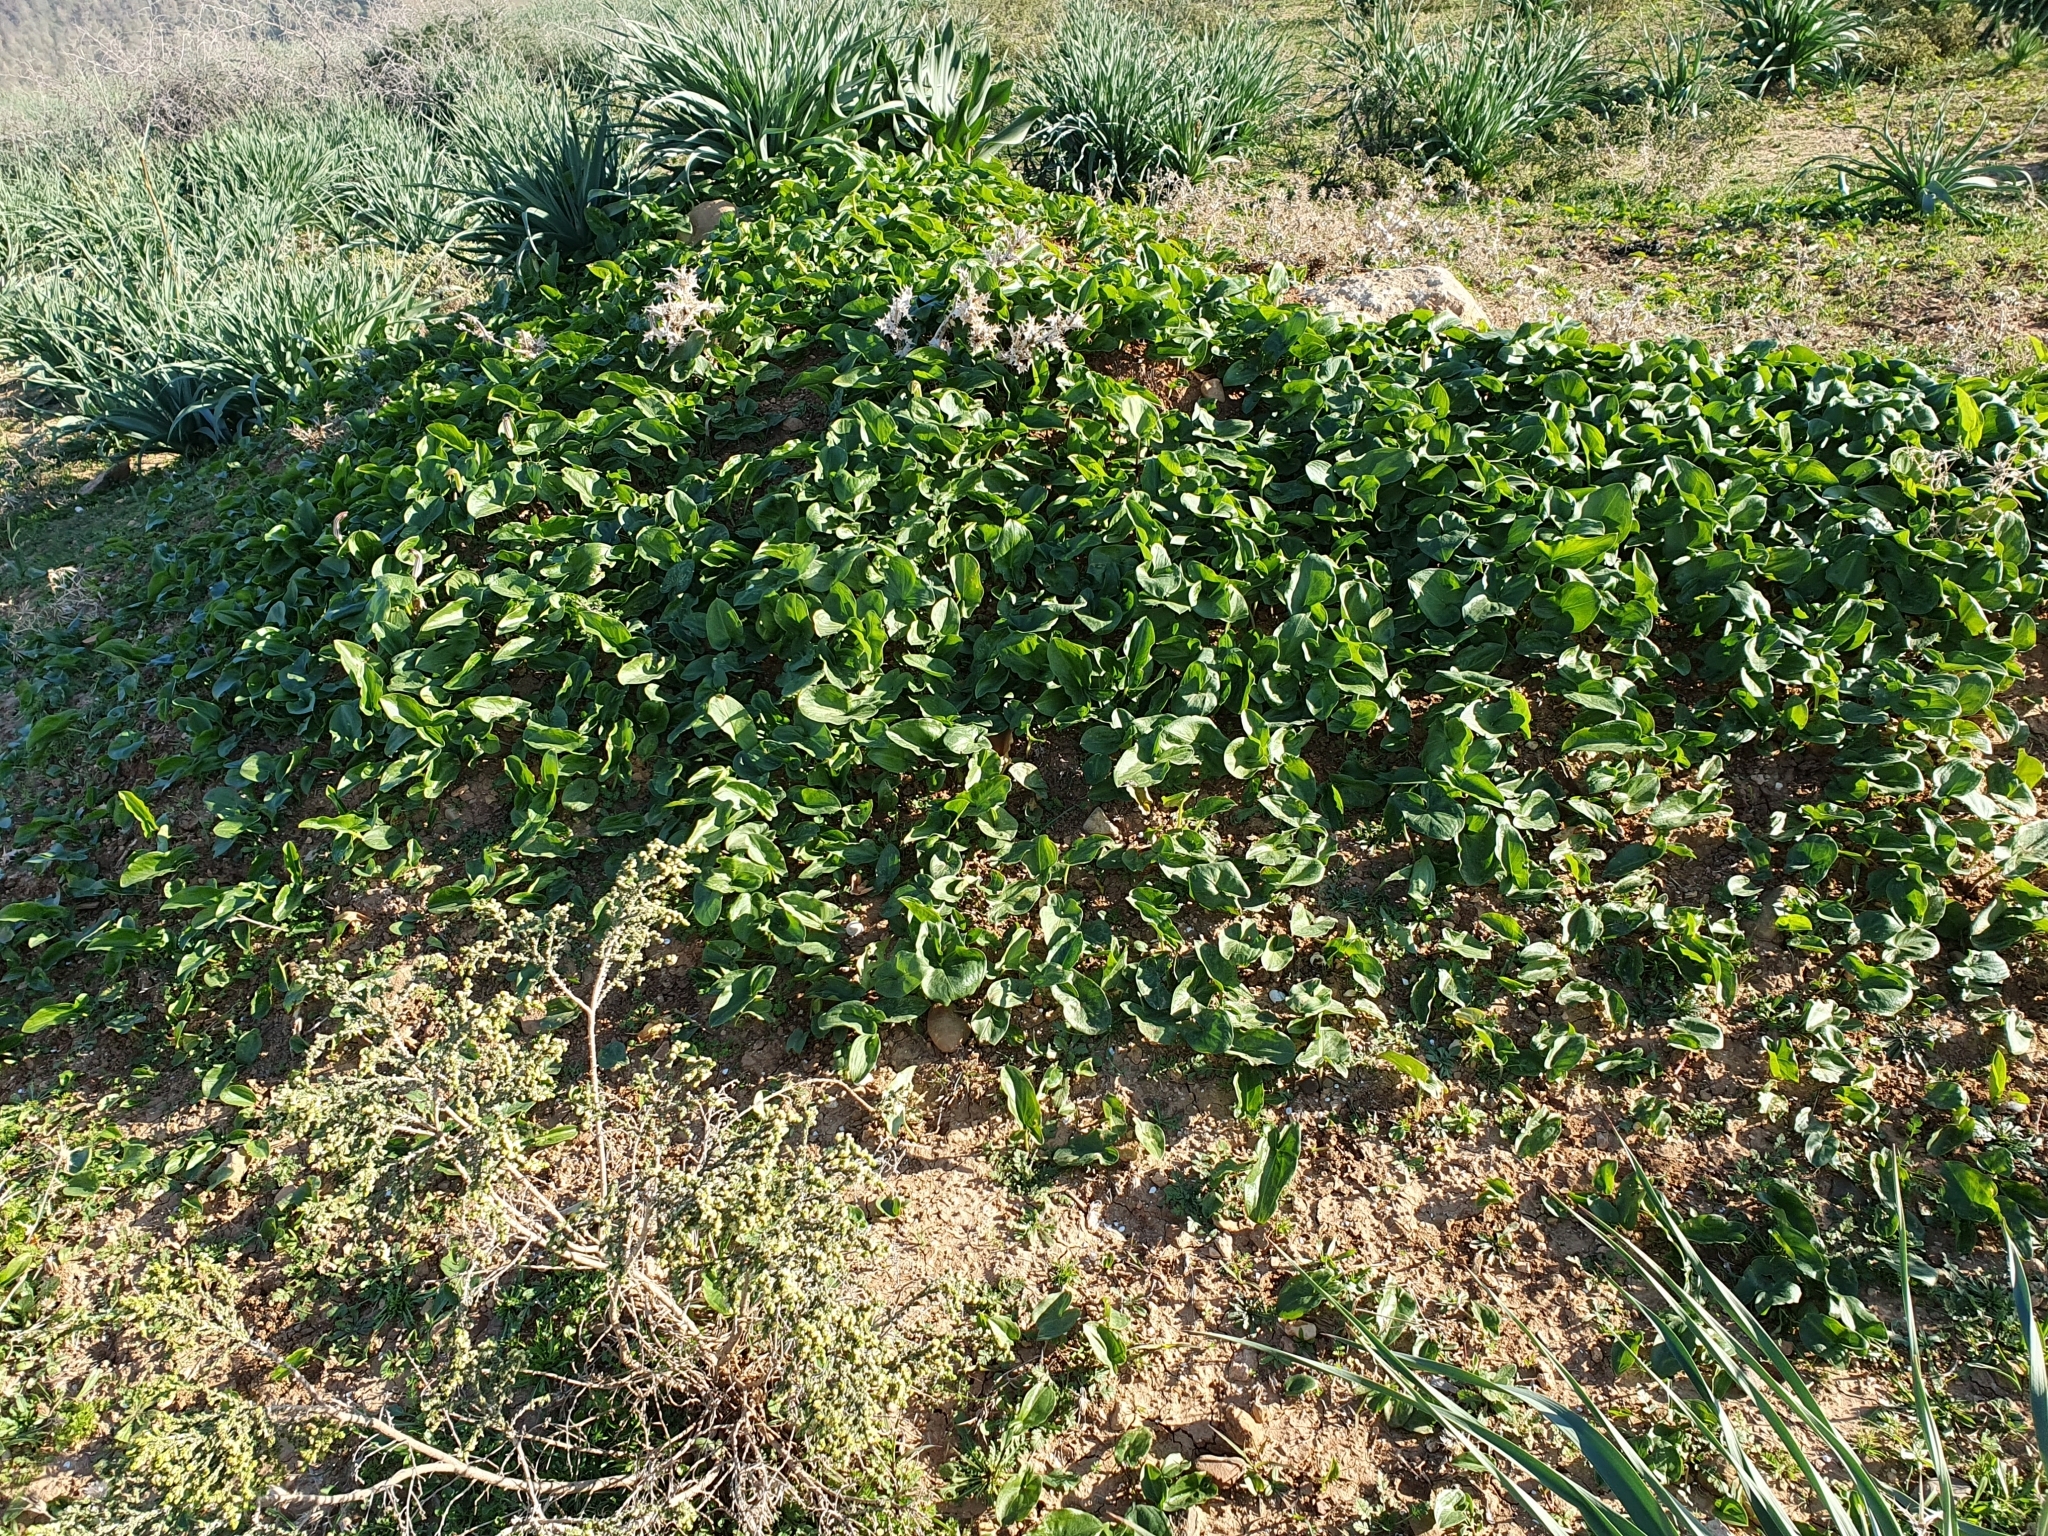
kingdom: Plantae
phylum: Tracheophyta
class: Liliopsida
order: Alismatales
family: Araceae
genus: Arisarum
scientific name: Arisarum vulgare
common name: Common arisarum
